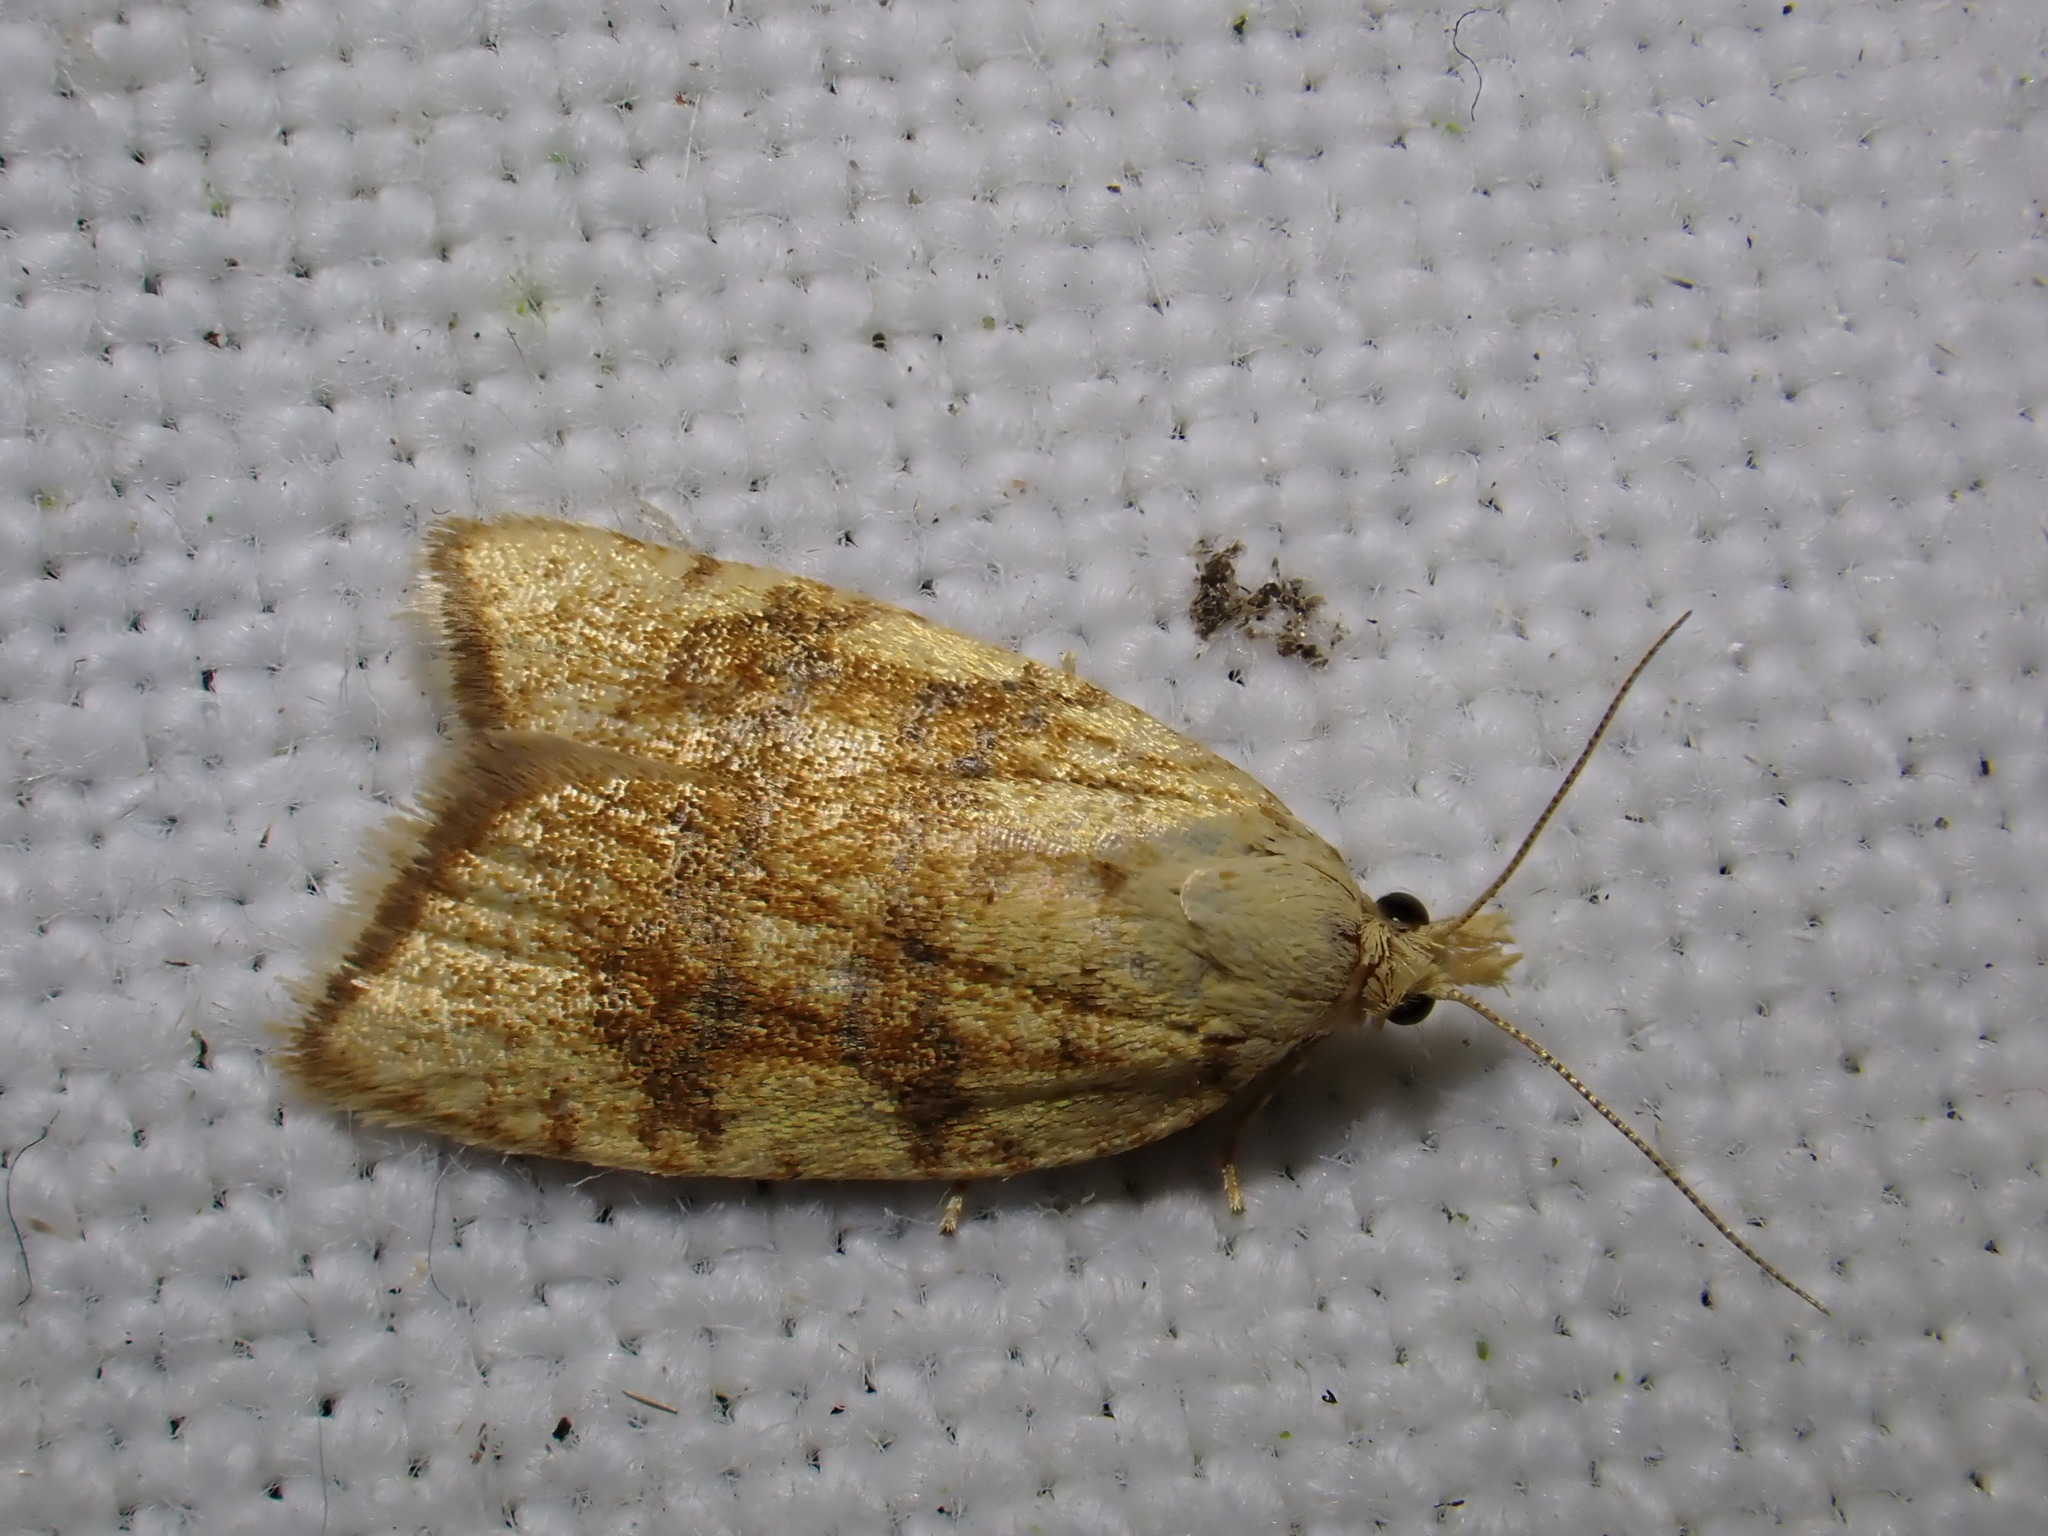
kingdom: Animalia
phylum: Arthropoda
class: Insecta
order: Lepidoptera
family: Tortricidae
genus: Aleimma
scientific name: Aleimma loeflingiana
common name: Yellow oak button
